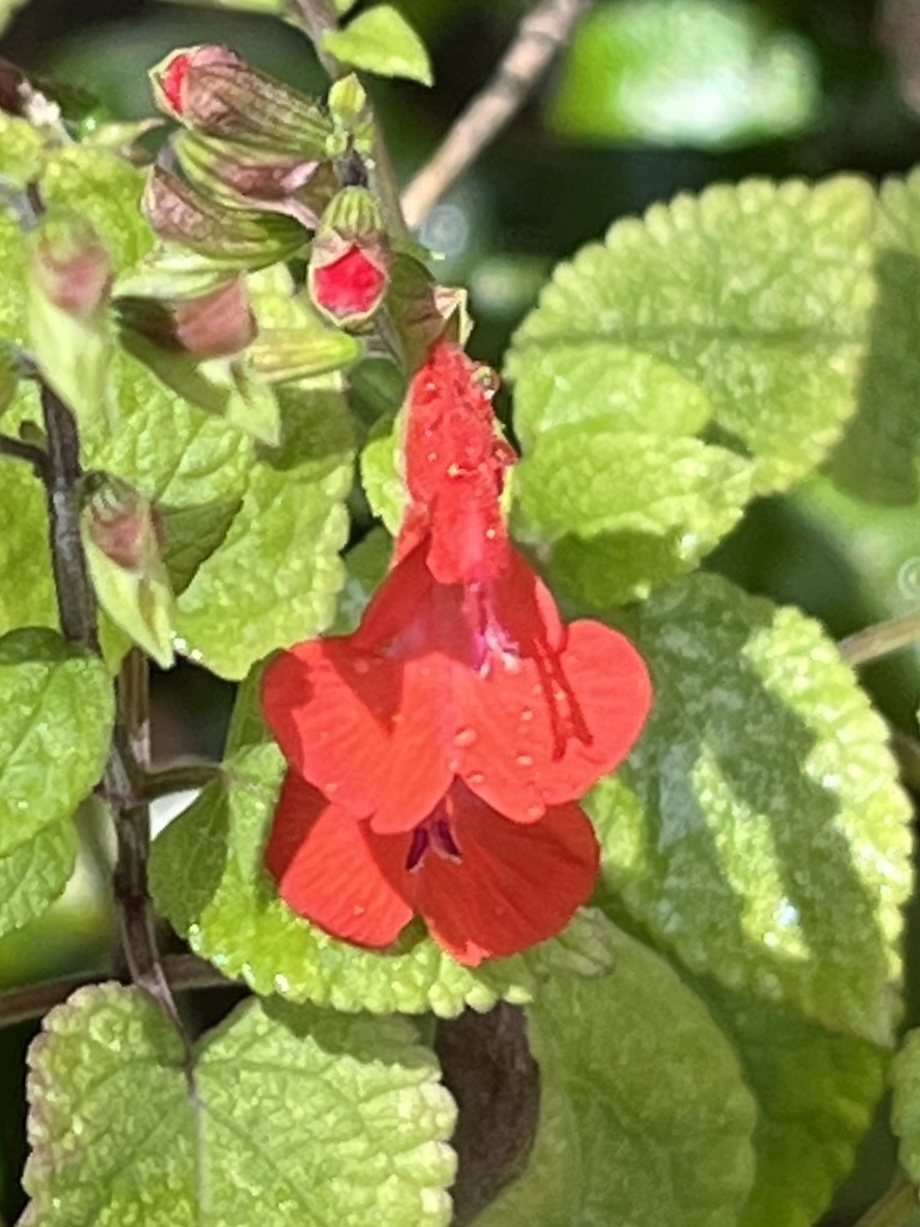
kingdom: Plantae
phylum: Tracheophyta
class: Magnoliopsida
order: Lamiales
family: Lamiaceae
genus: Salvia
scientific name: Salvia coccinea
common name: Blood sage
